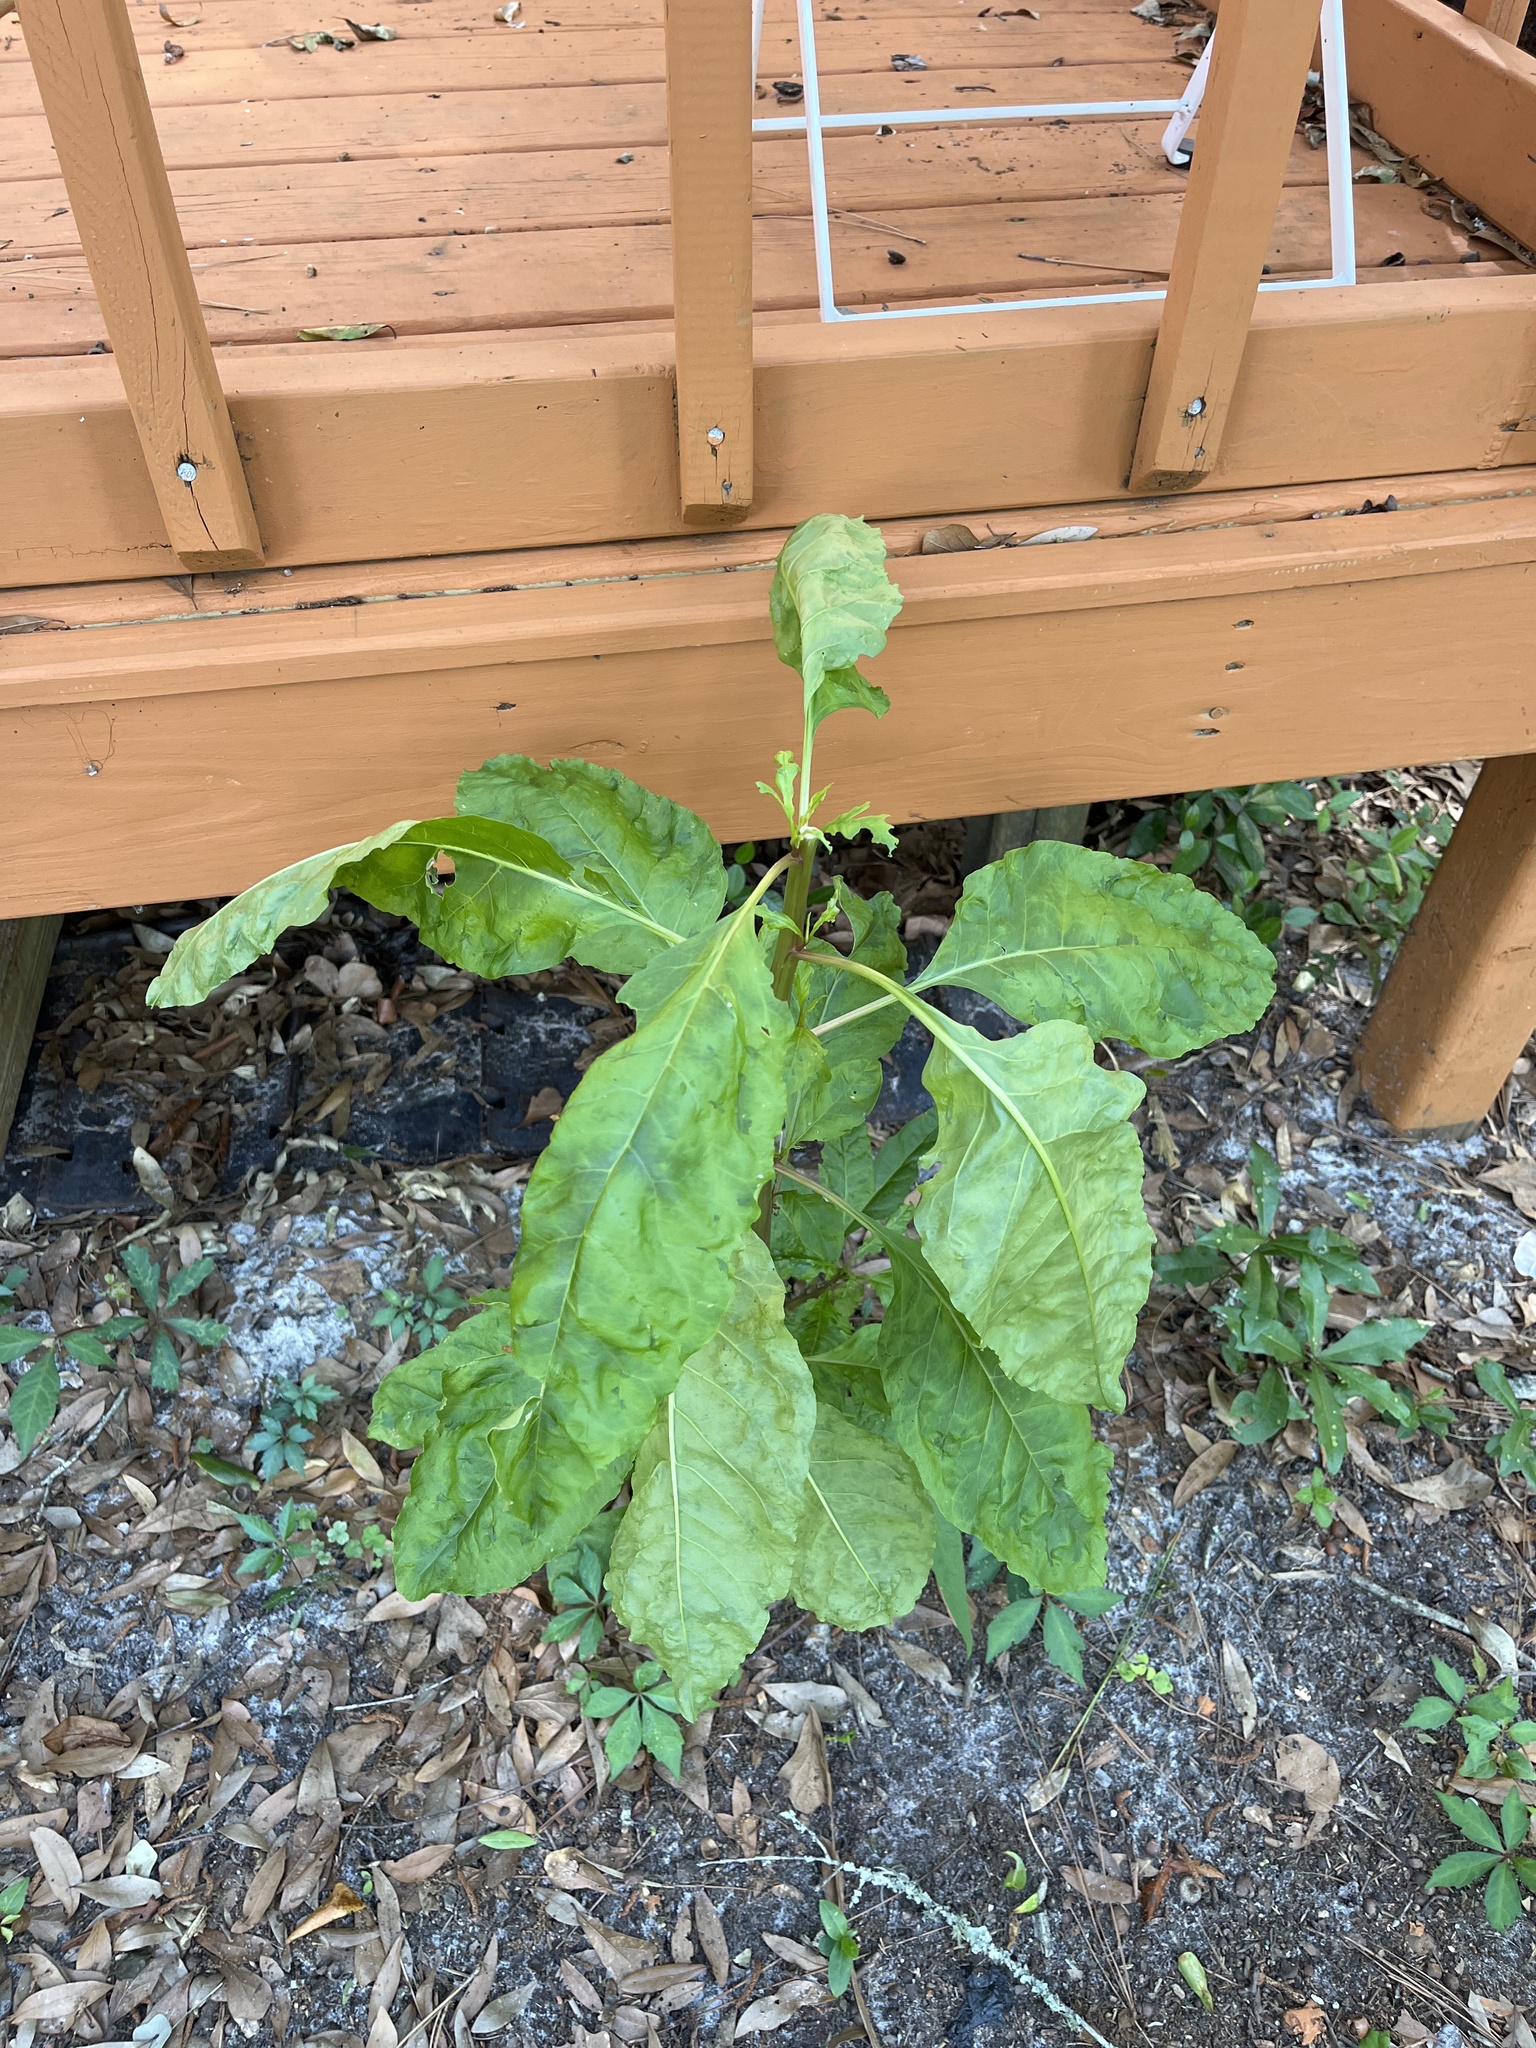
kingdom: Plantae
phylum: Tracheophyta
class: Magnoliopsida
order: Caryophyllales
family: Phytolaccaceae
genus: Phytolacca
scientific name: Phytolacca americana
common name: American pokeweed
